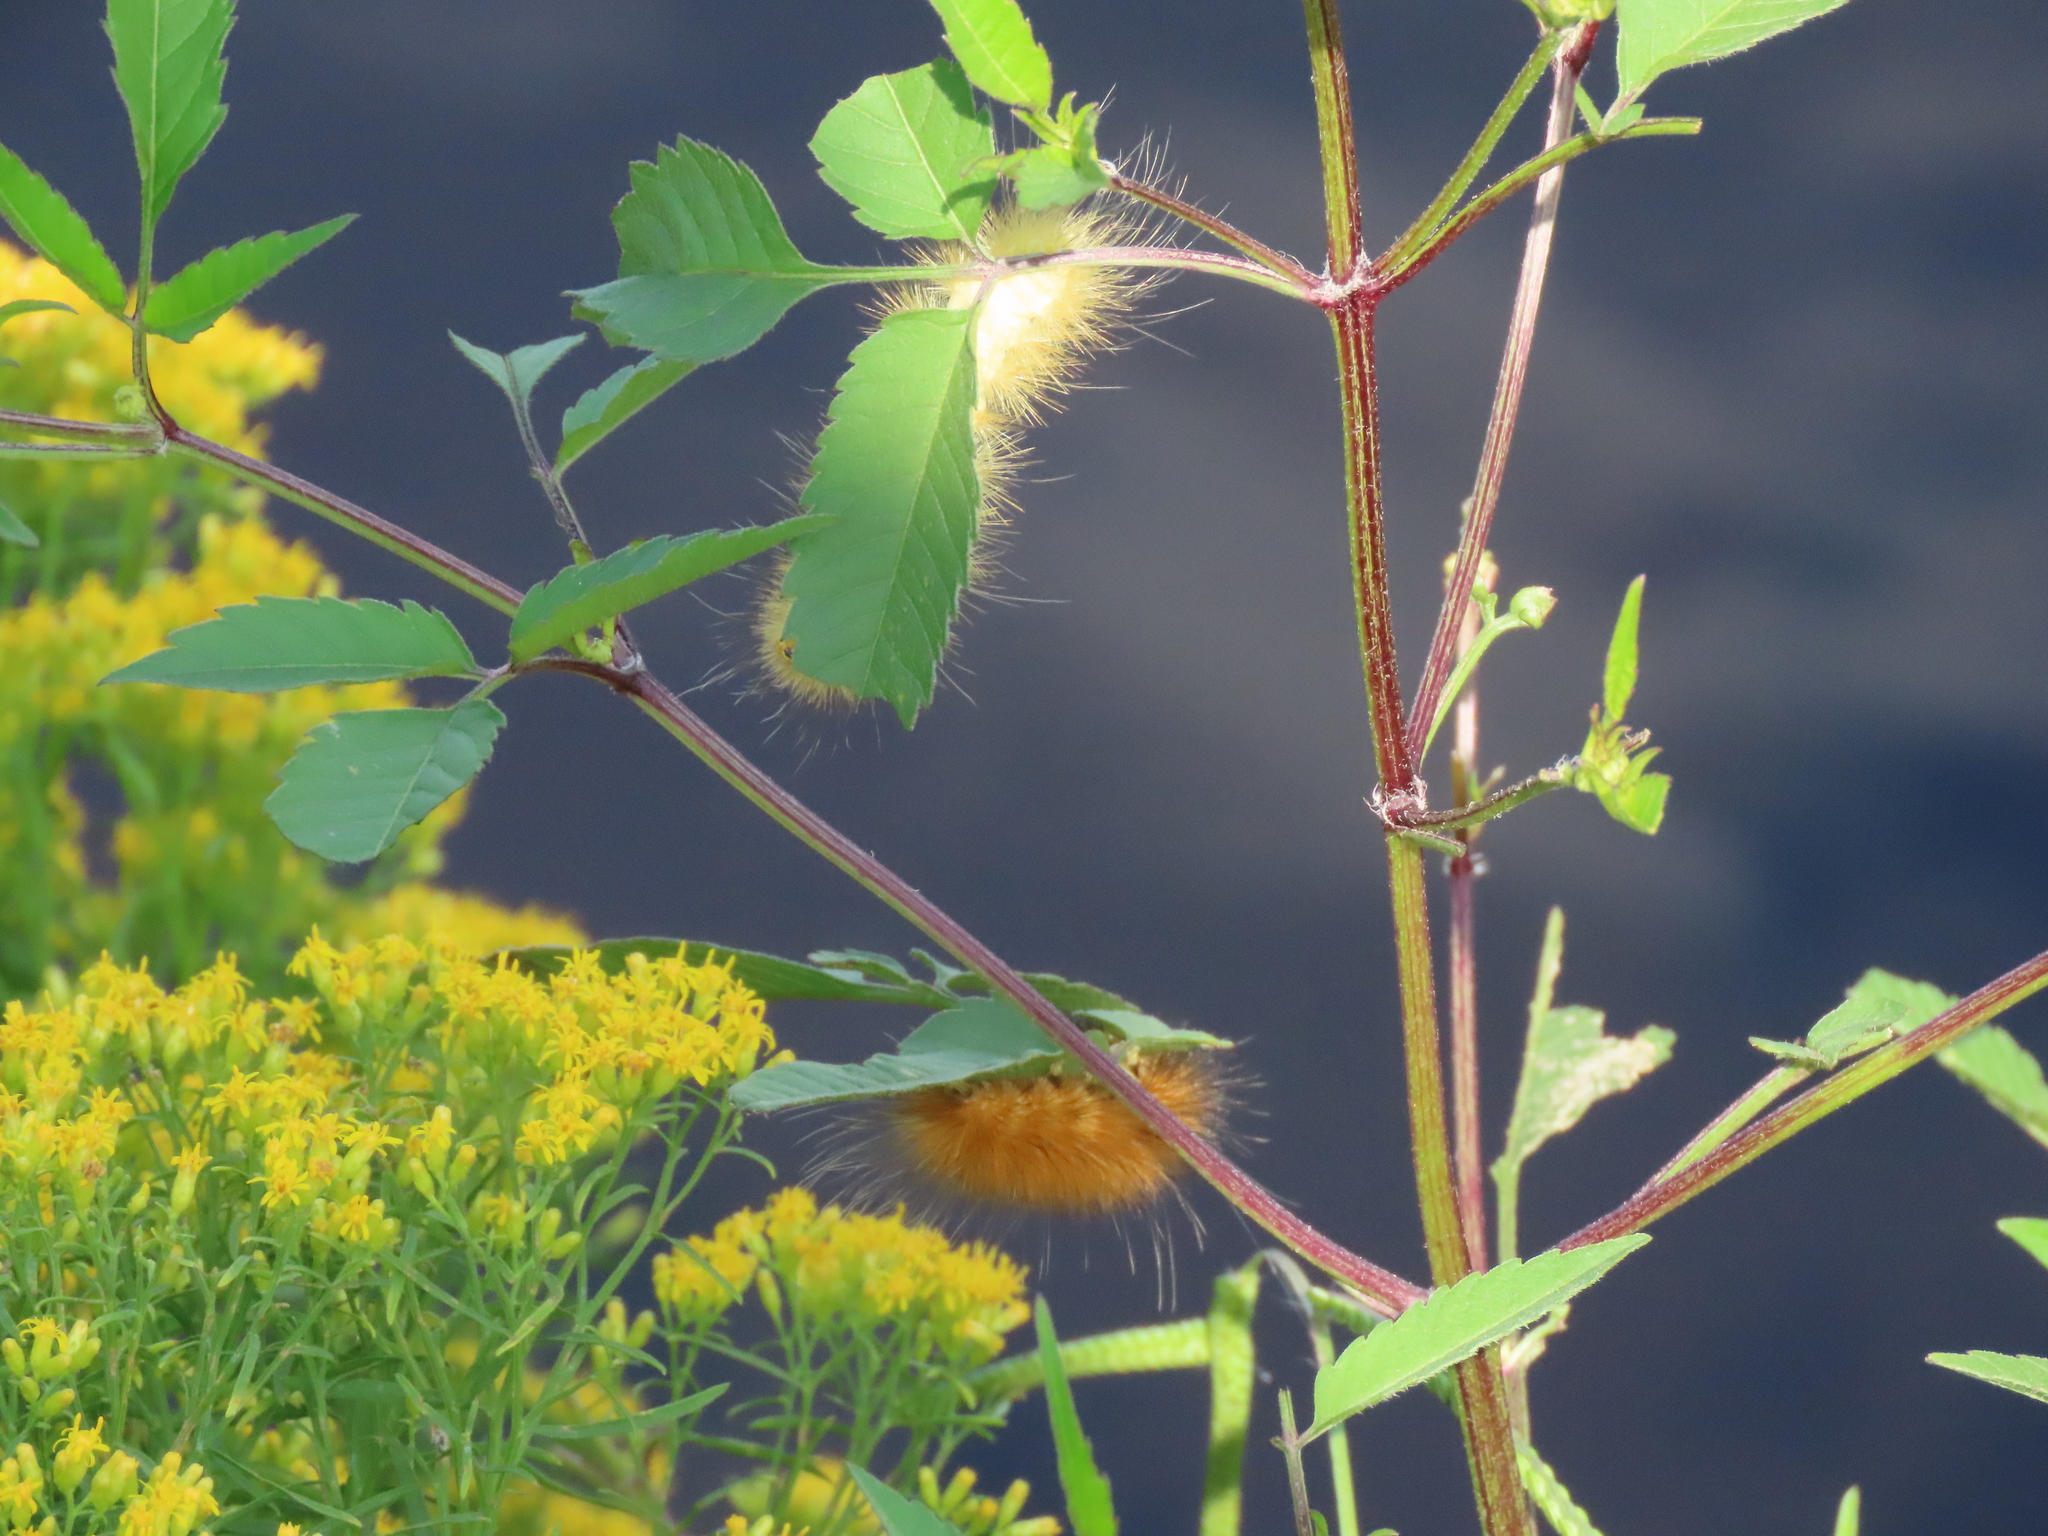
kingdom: Animalia
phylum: Arthropoda
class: Insecta
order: Lepidoptera
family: Erebidae
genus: Spilosoma
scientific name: Spilosoma virginica
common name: Virginia tiger moth
